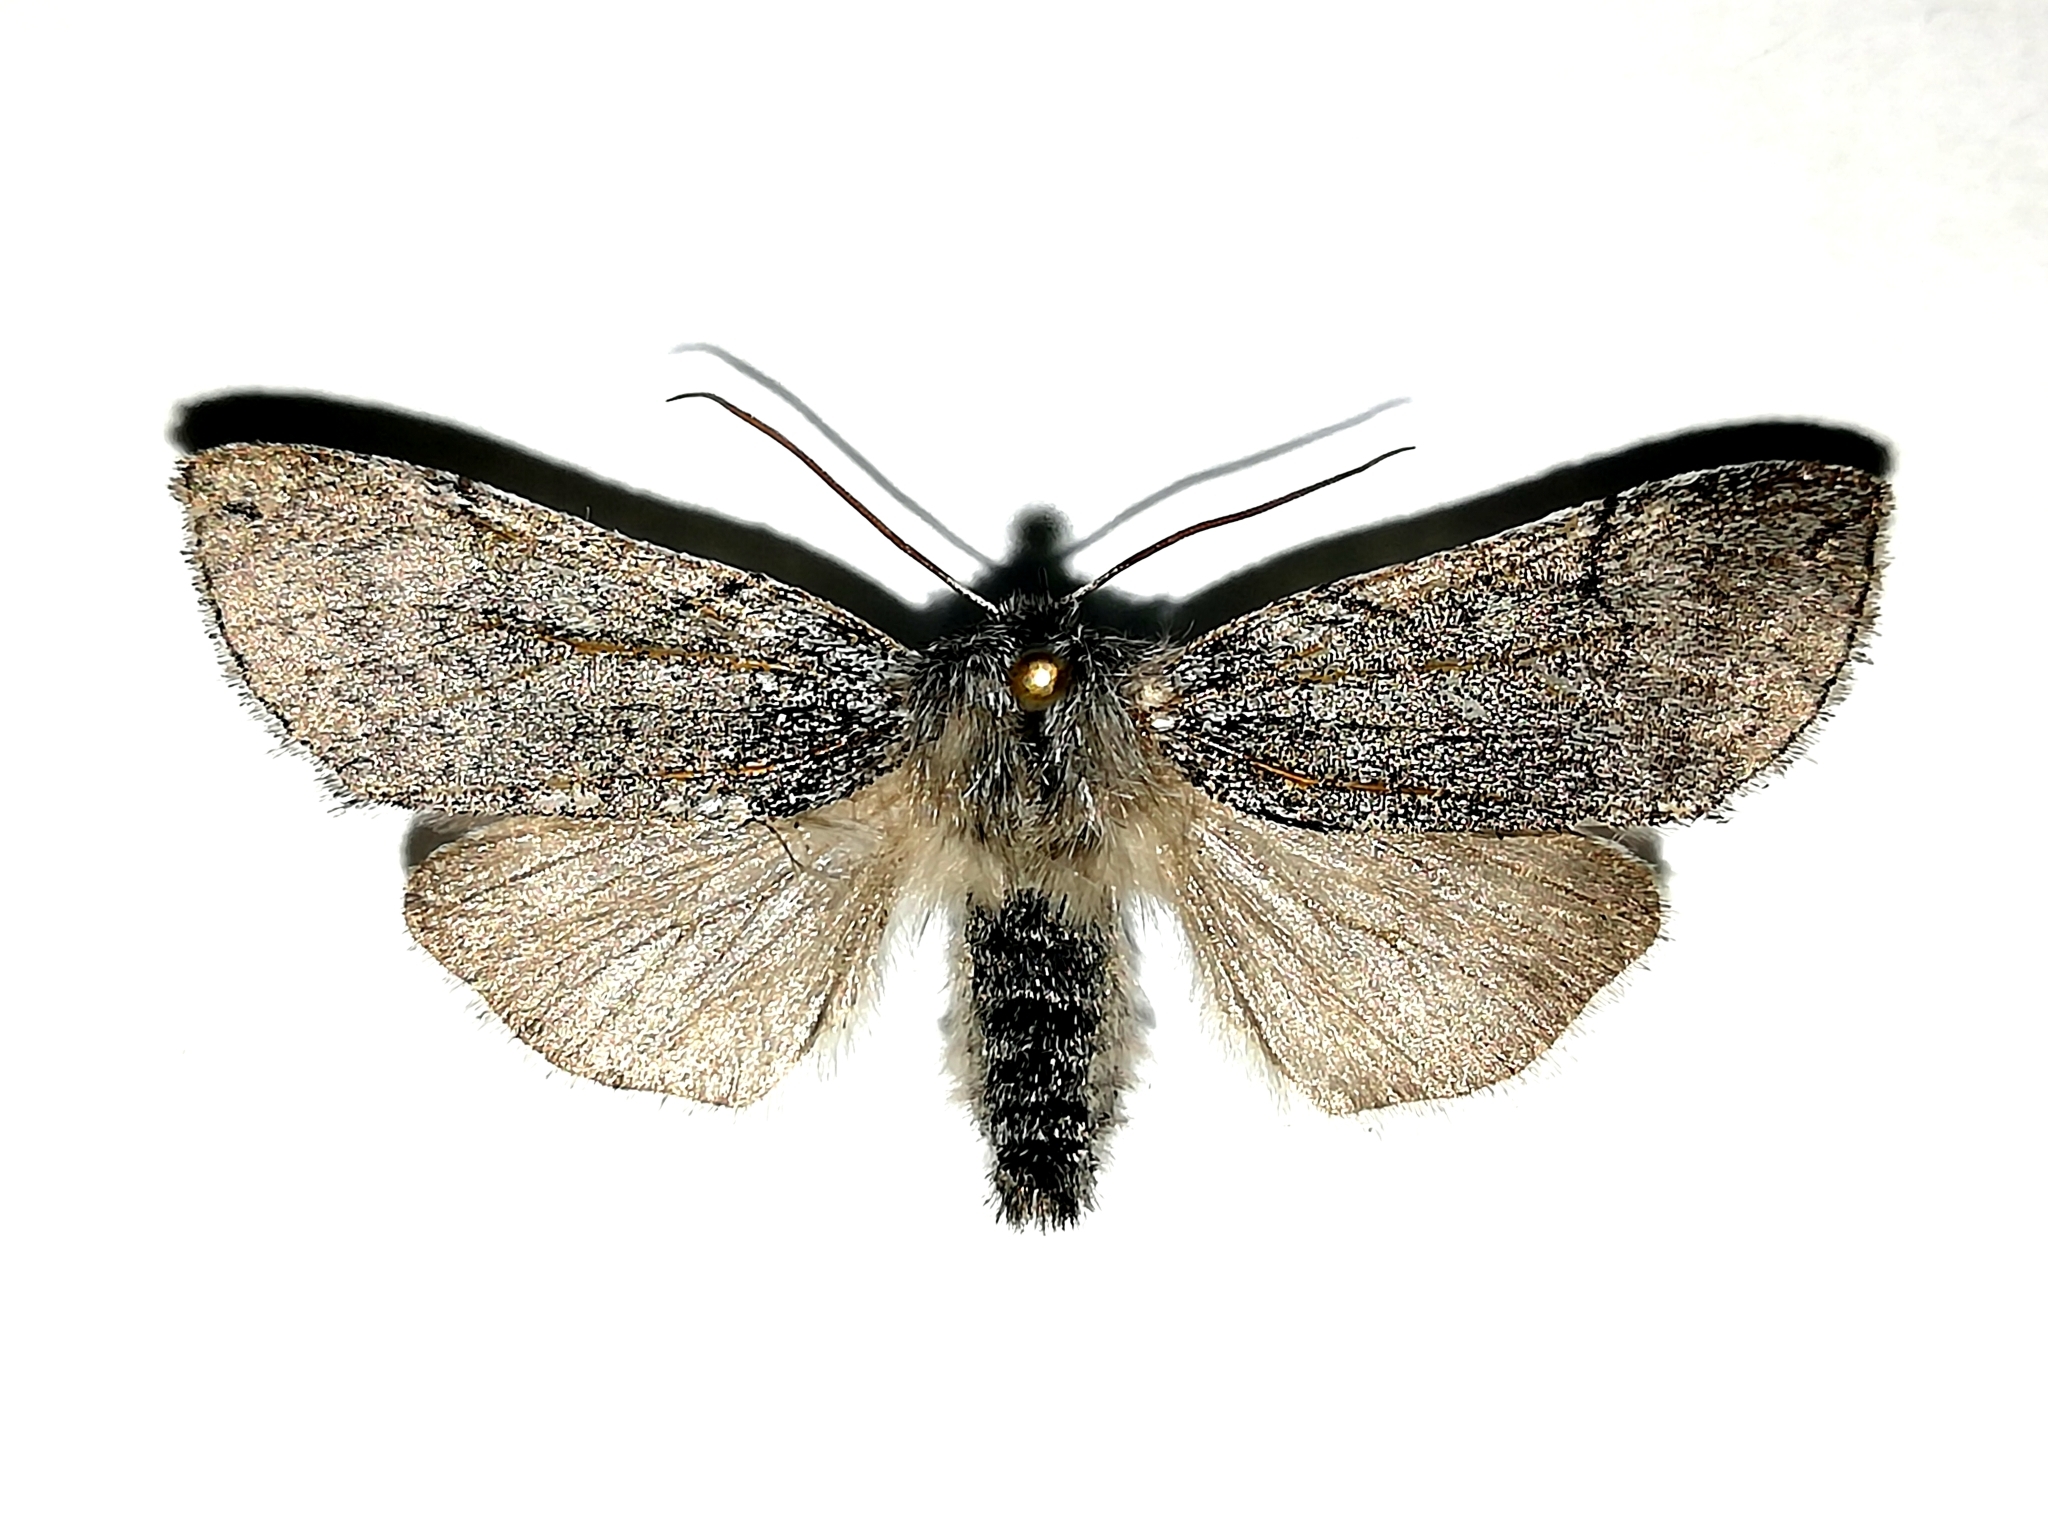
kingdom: Animalia
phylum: Arthropoda
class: Insecta
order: Lepidoptera
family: Drepanidae
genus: Achlya
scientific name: Achlya flavicornis
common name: Yellow horned
